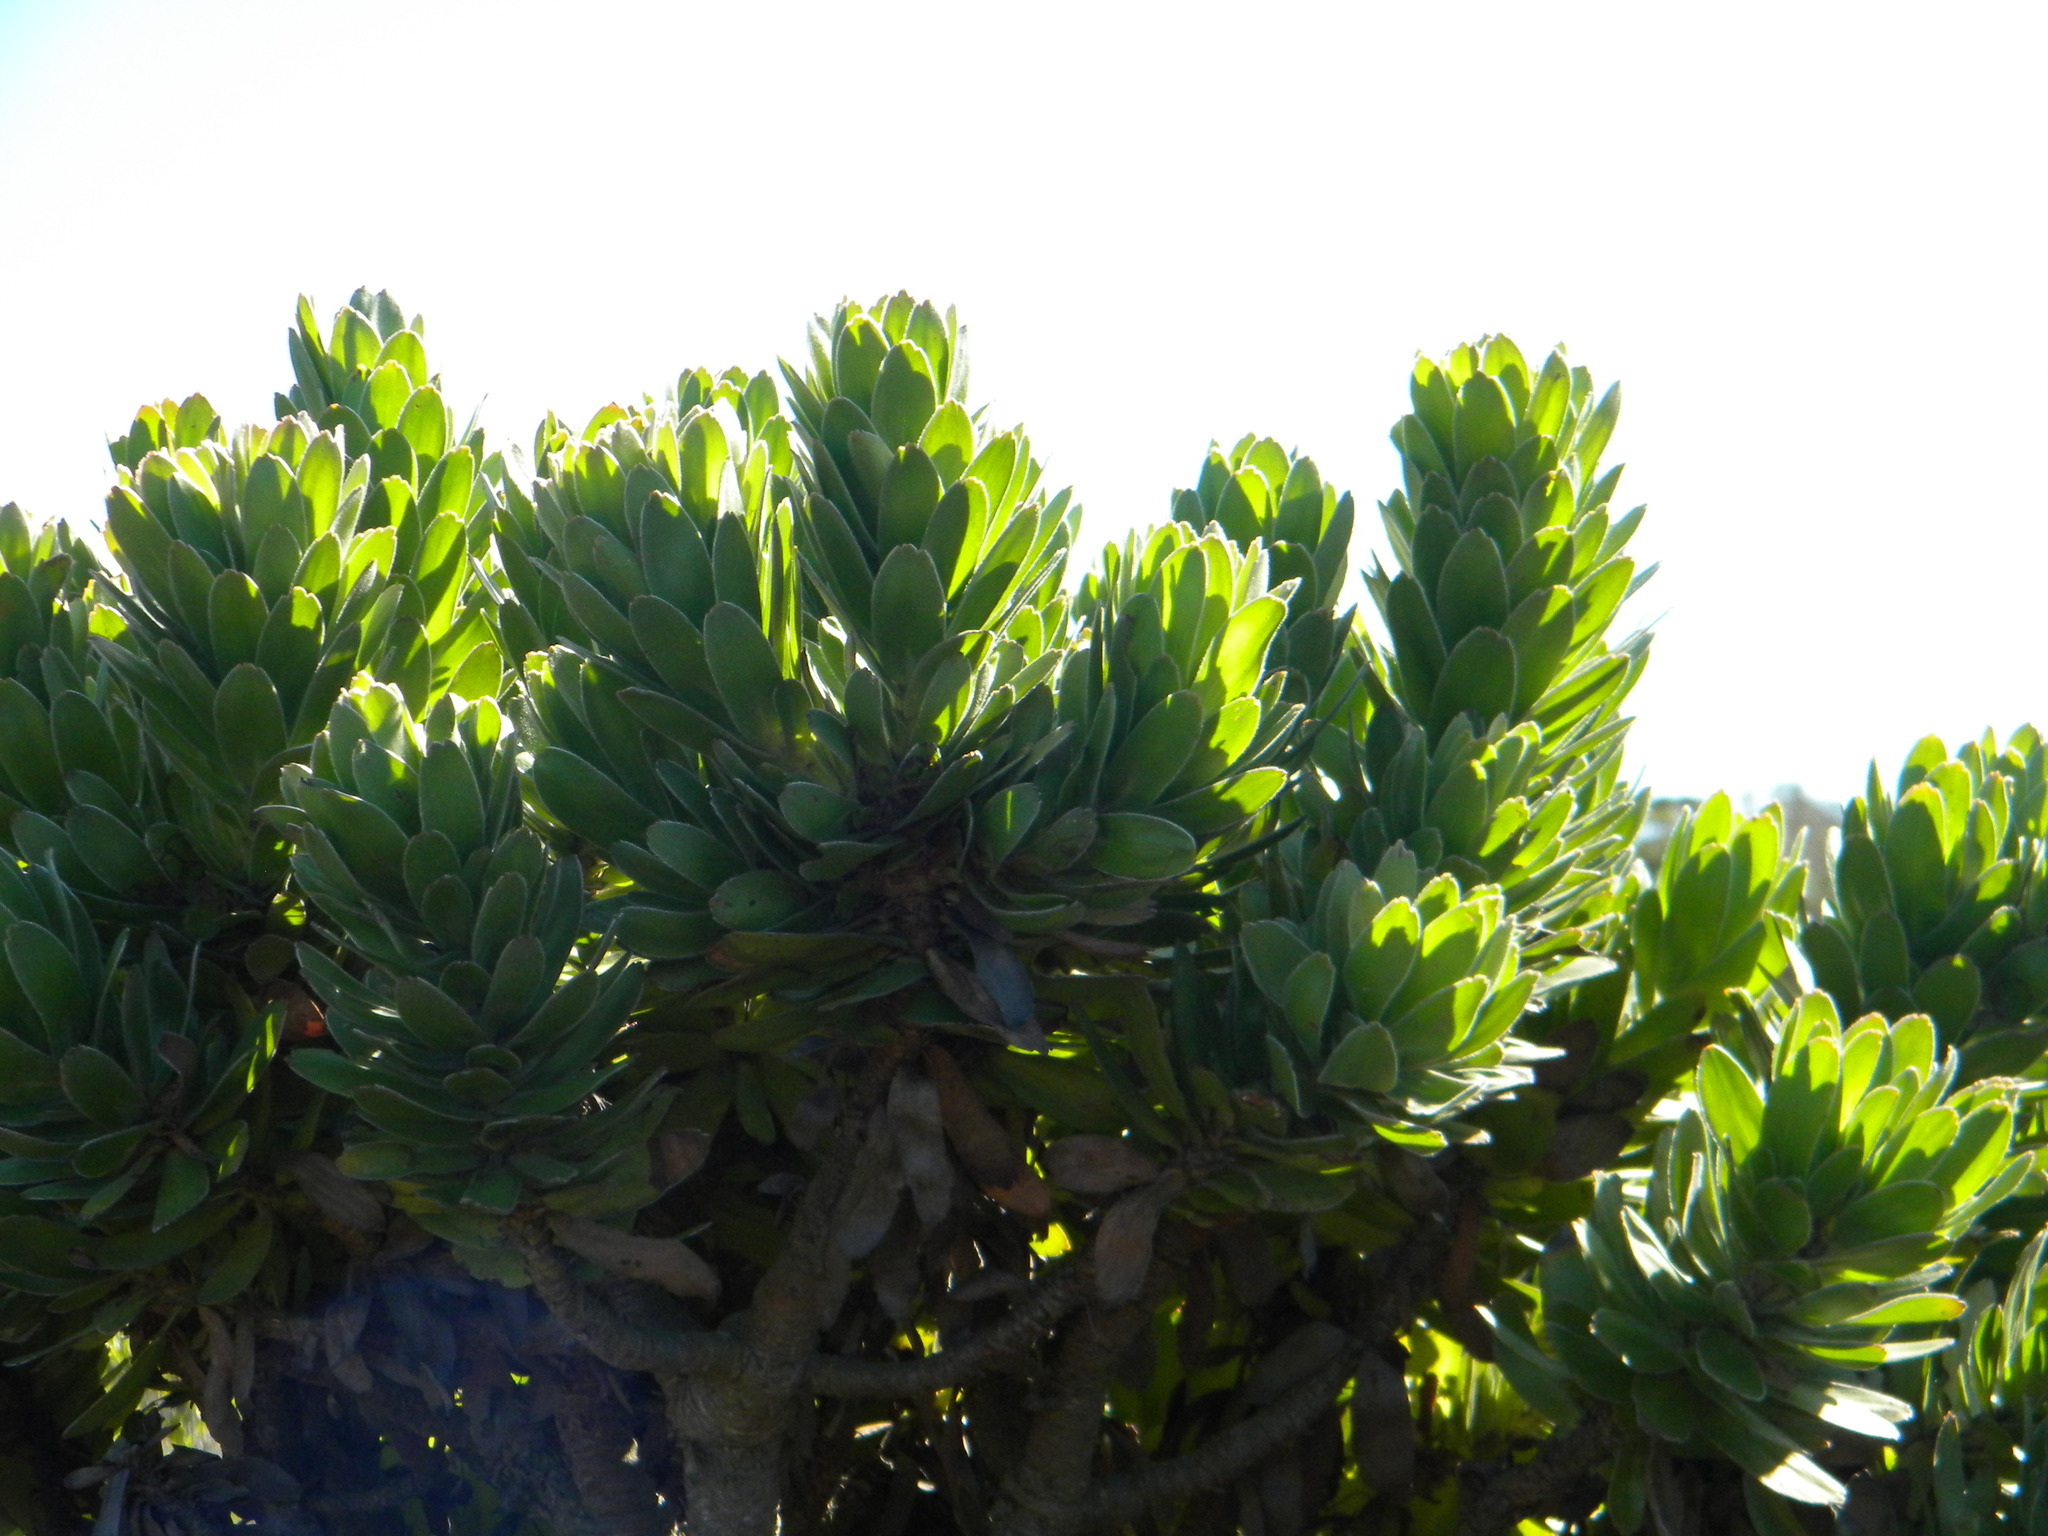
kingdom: Plantae
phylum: Tracheophyta
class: Magnoliopsida
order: Proteales
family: Proteaceae
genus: Leucospermum
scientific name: Leucospermum conocarpodendron
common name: Tree pincushion
